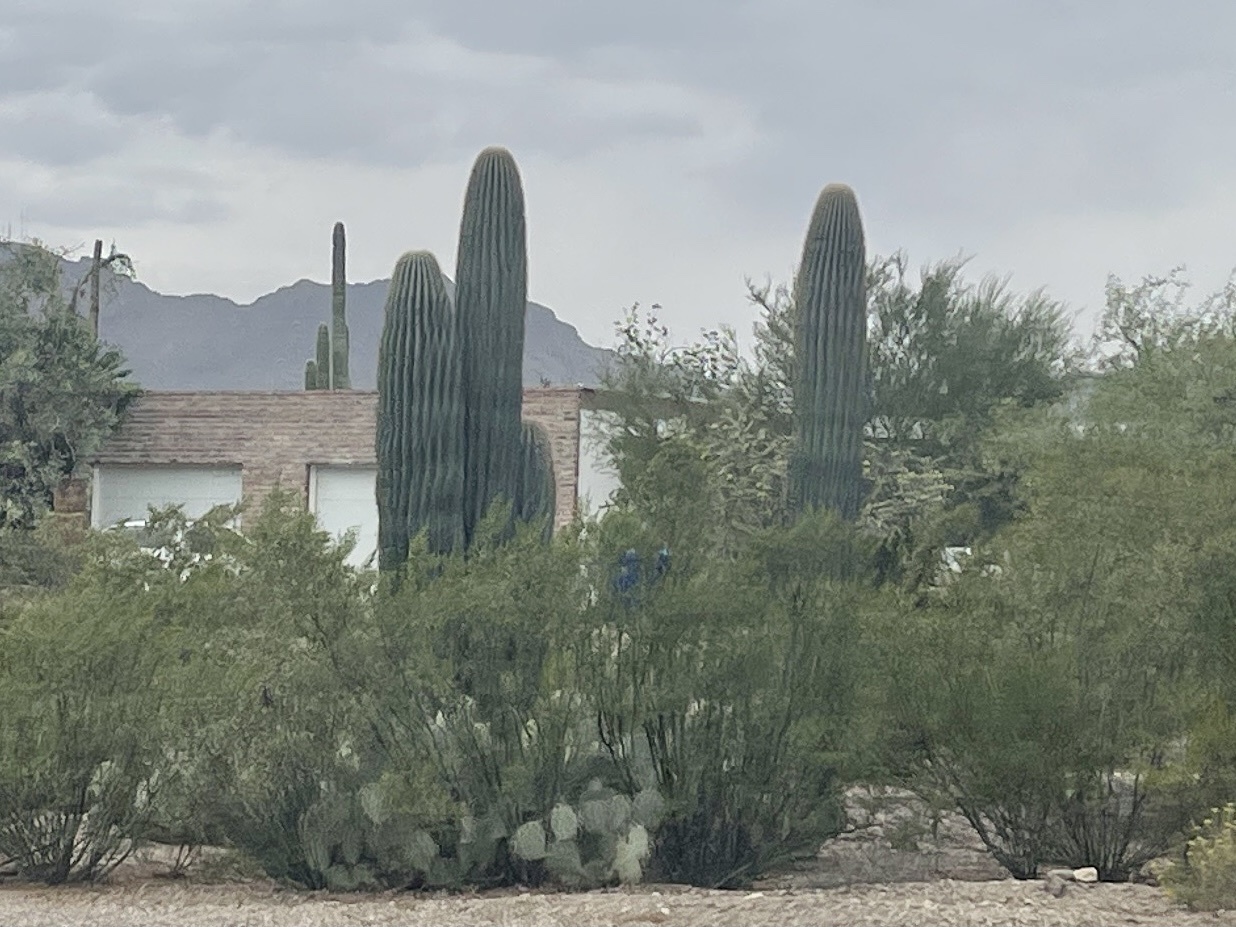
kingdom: Plantae
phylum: Tracheophyta
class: Magnoliopsida
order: Caryophyllales
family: Cactaceae
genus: Carnegiea
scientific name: Carnegiea gigantea
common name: Saguaro
